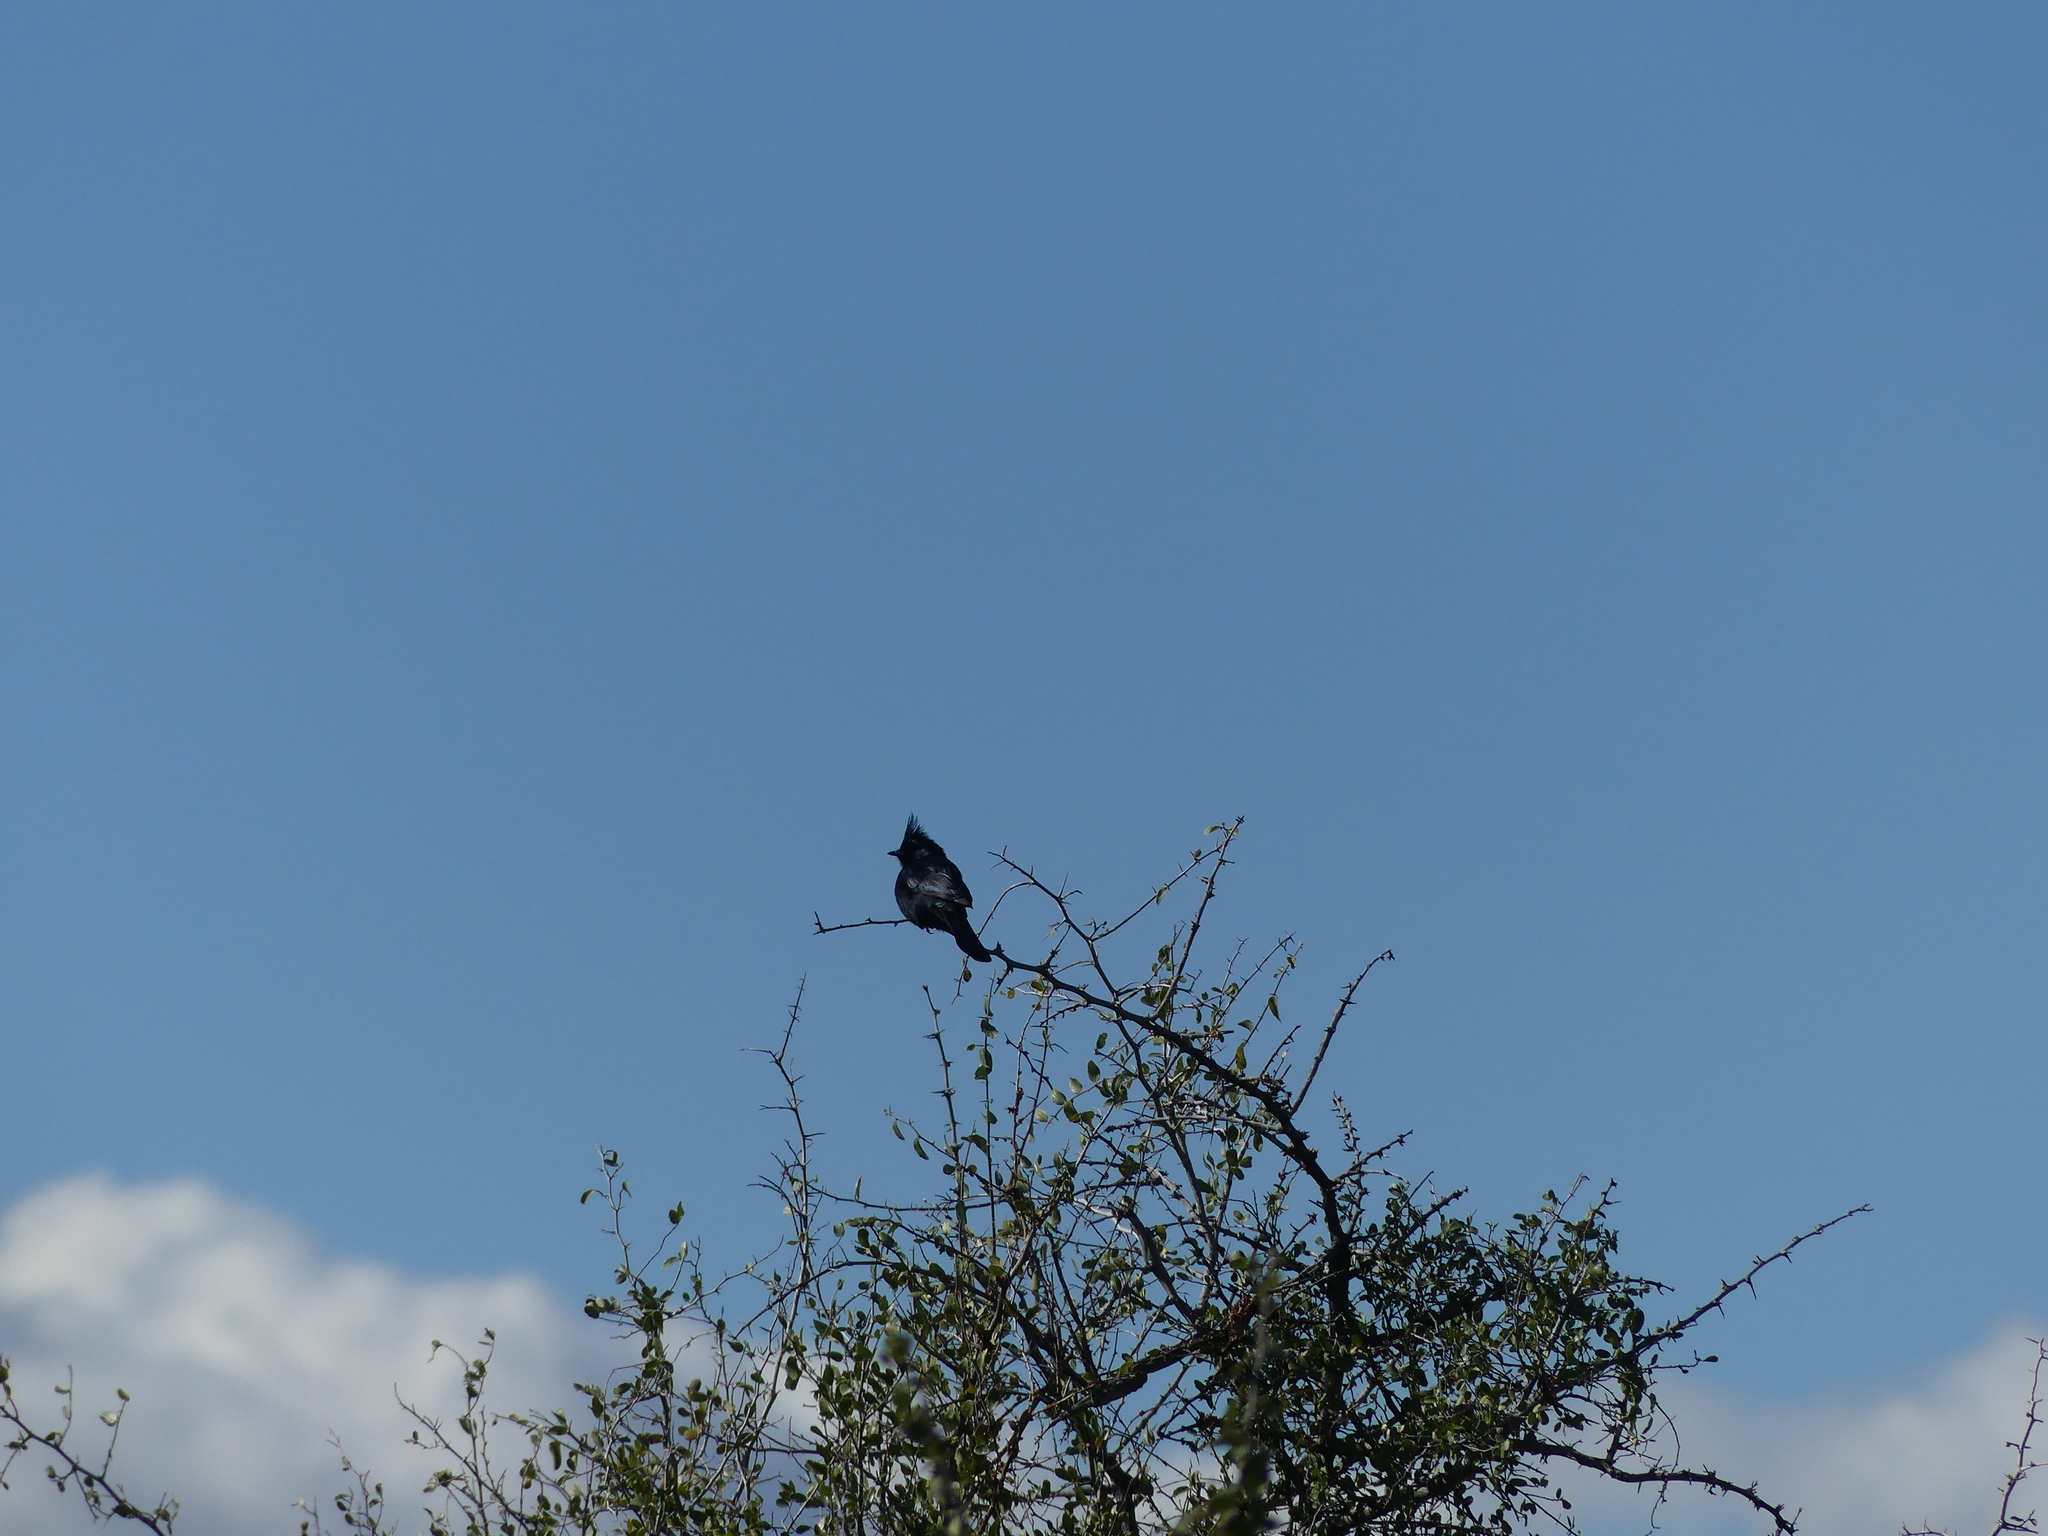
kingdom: Animalia
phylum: Chordata
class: Aves
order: Passeriformes
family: Ptilogonatidae
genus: Phainopepla
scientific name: Phainopepla nitens
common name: Phainopepla
